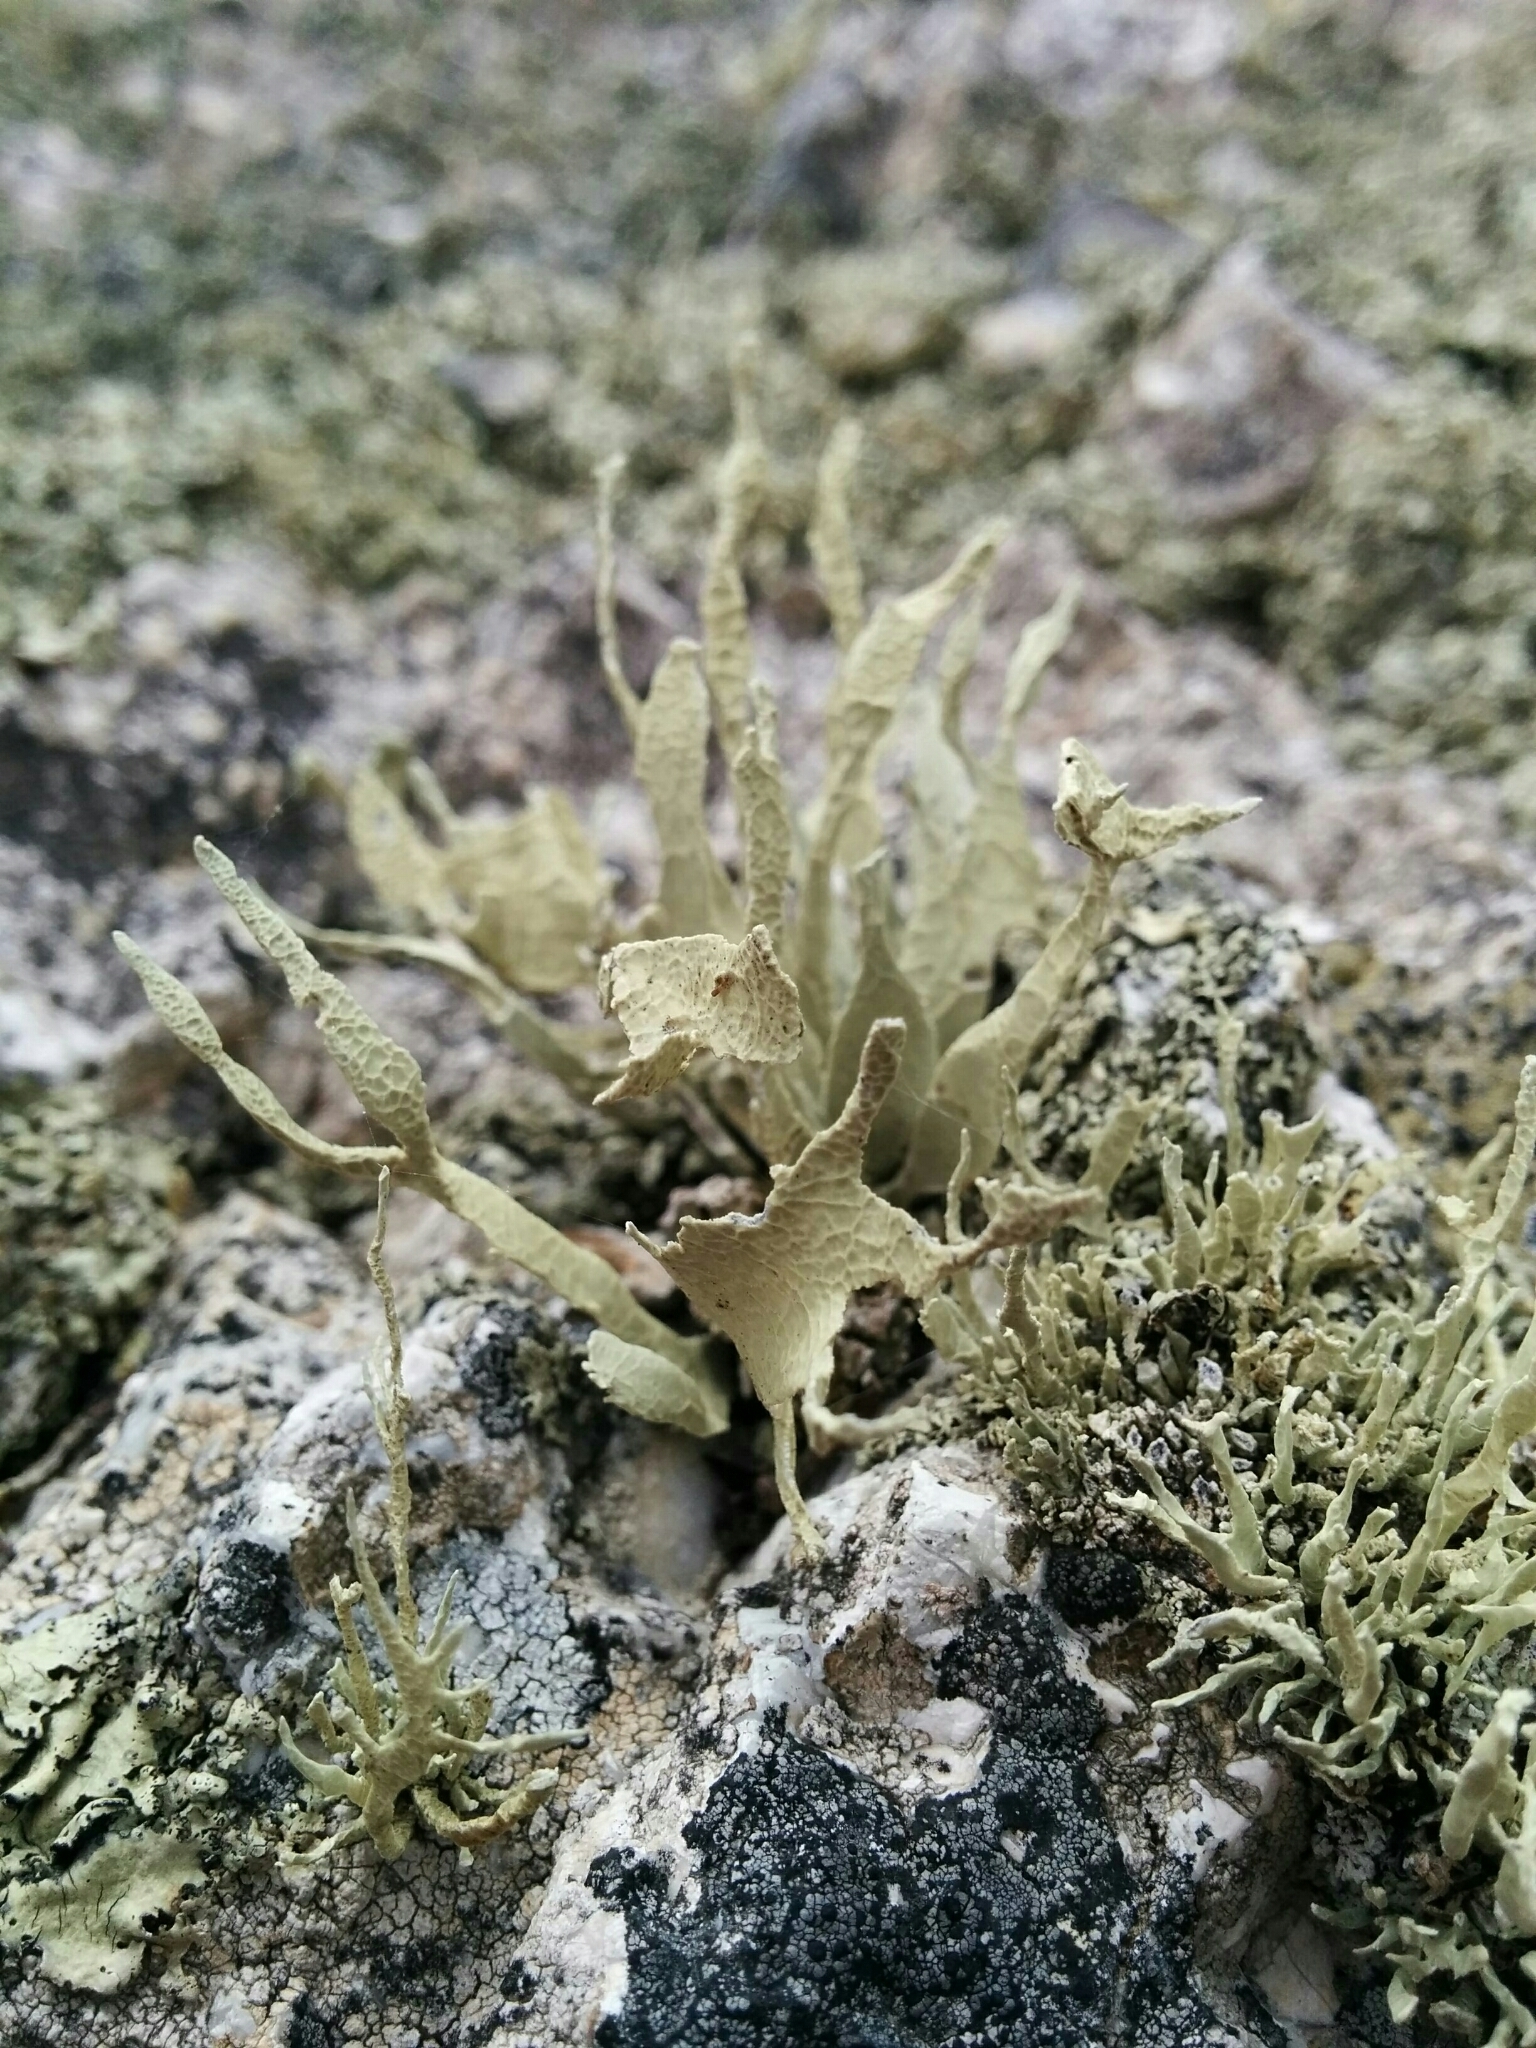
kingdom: Fungi
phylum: Ascomycota
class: Lecanoromycetes
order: Lecanorales
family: Ramalinaceae
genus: Niebla
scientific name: Niebla homalea
